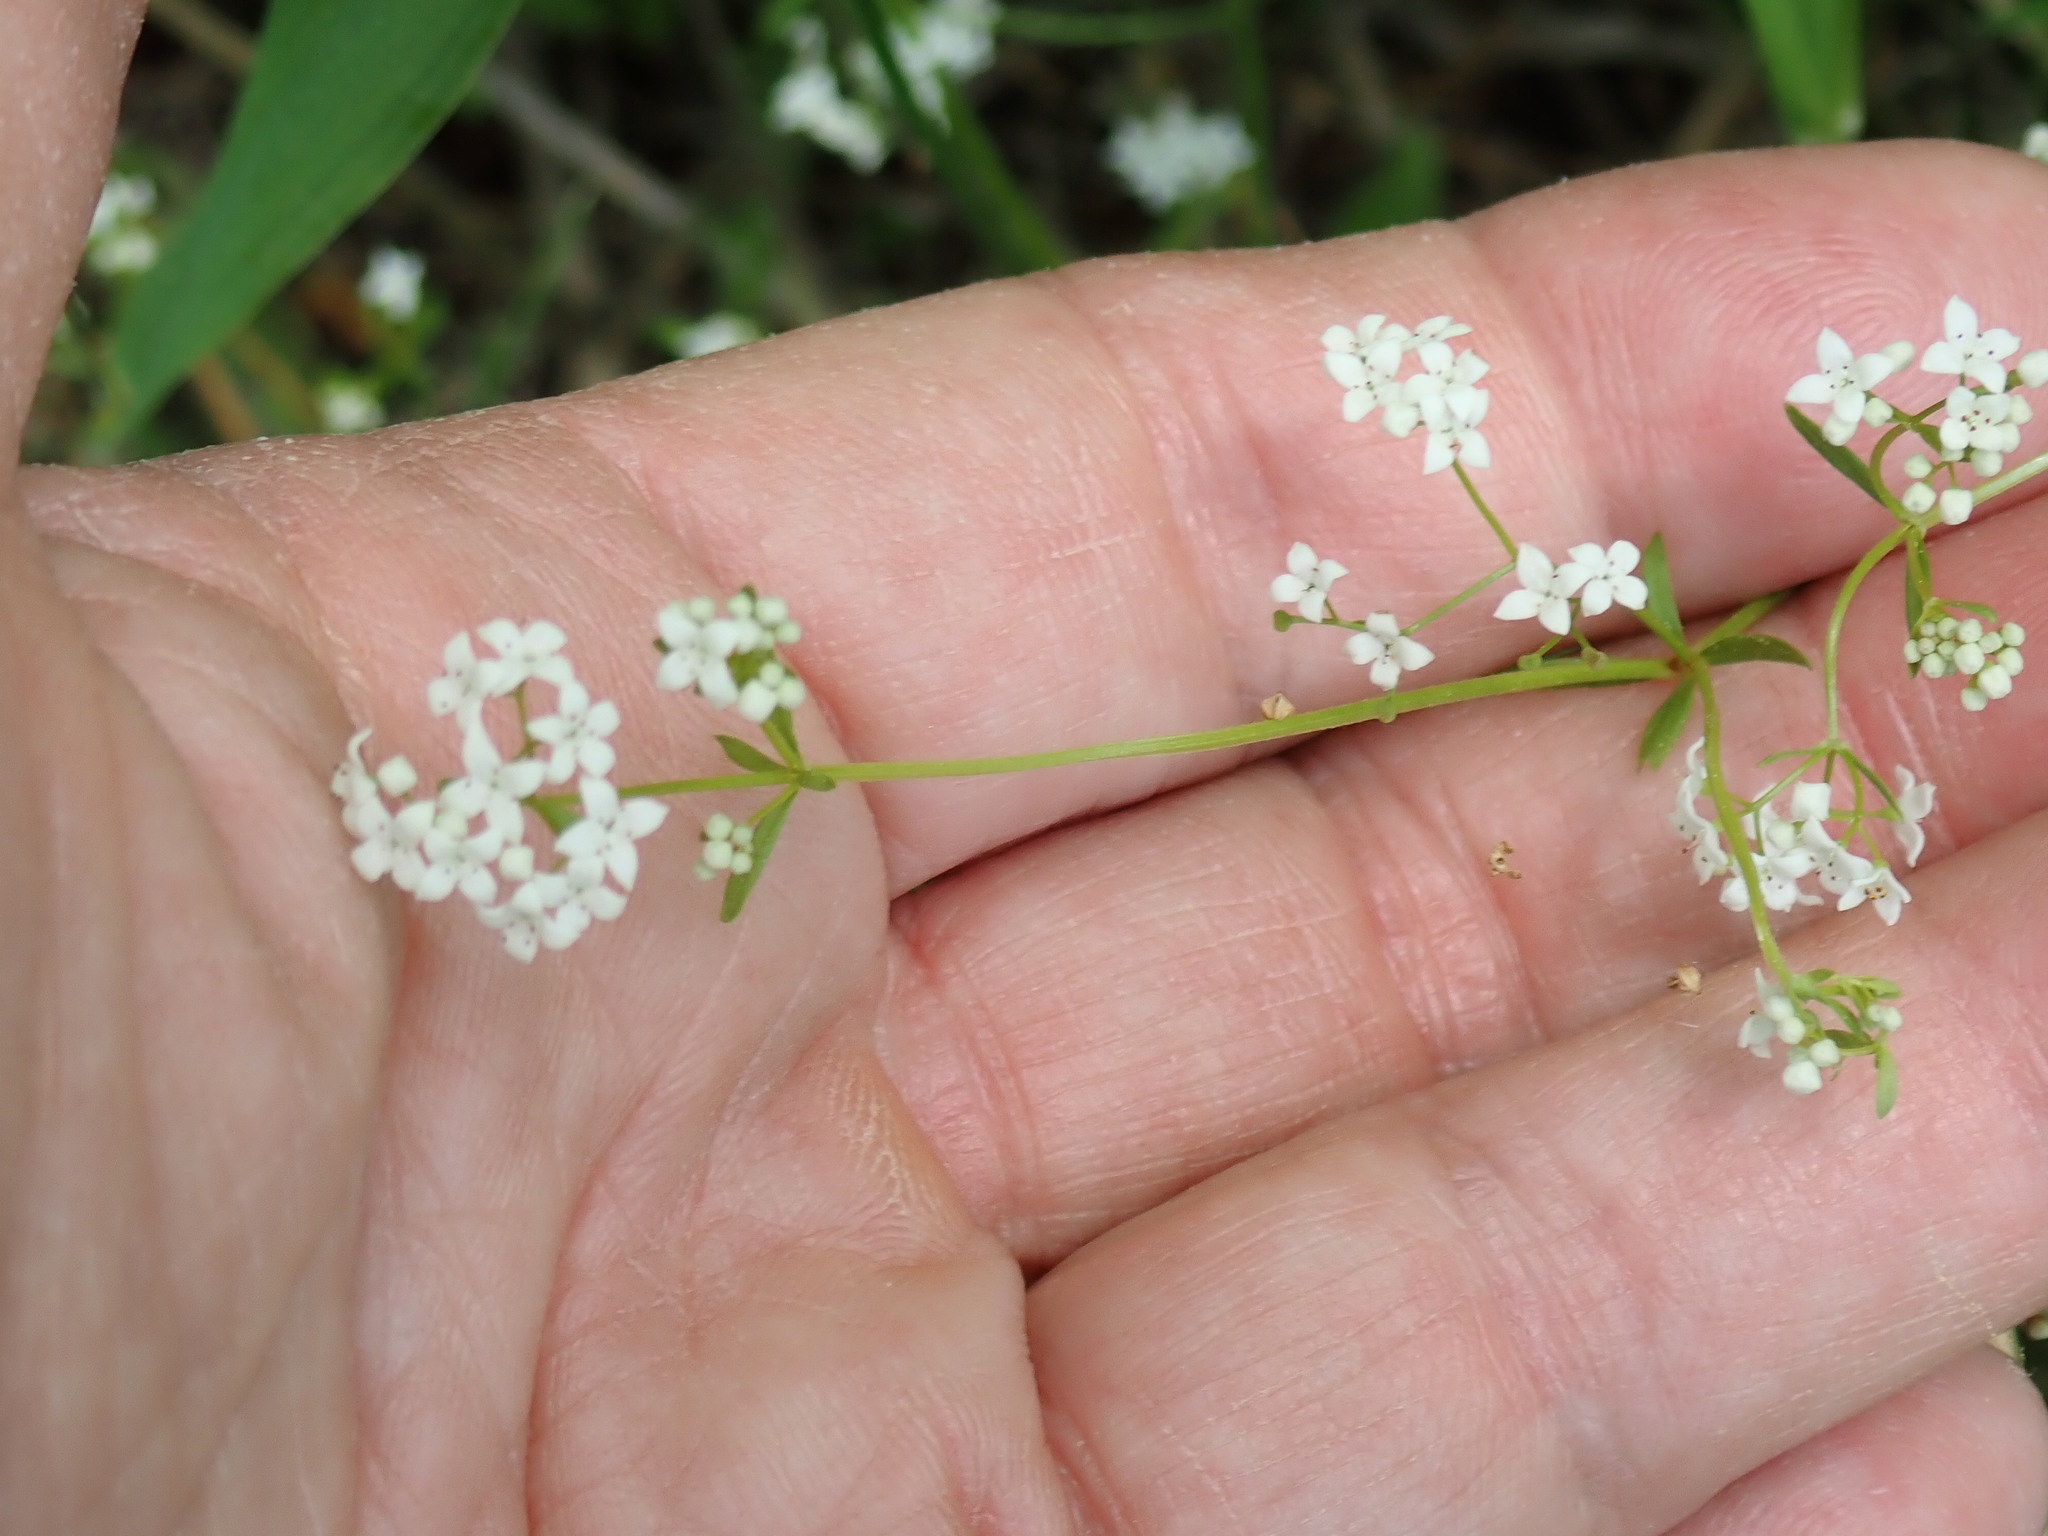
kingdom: Plantae
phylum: Tracheophyta
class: Magnoliopsida
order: Gentianales
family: Rubiaceae
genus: Galium
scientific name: Galium palustre
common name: Common marsh-bedstraw
